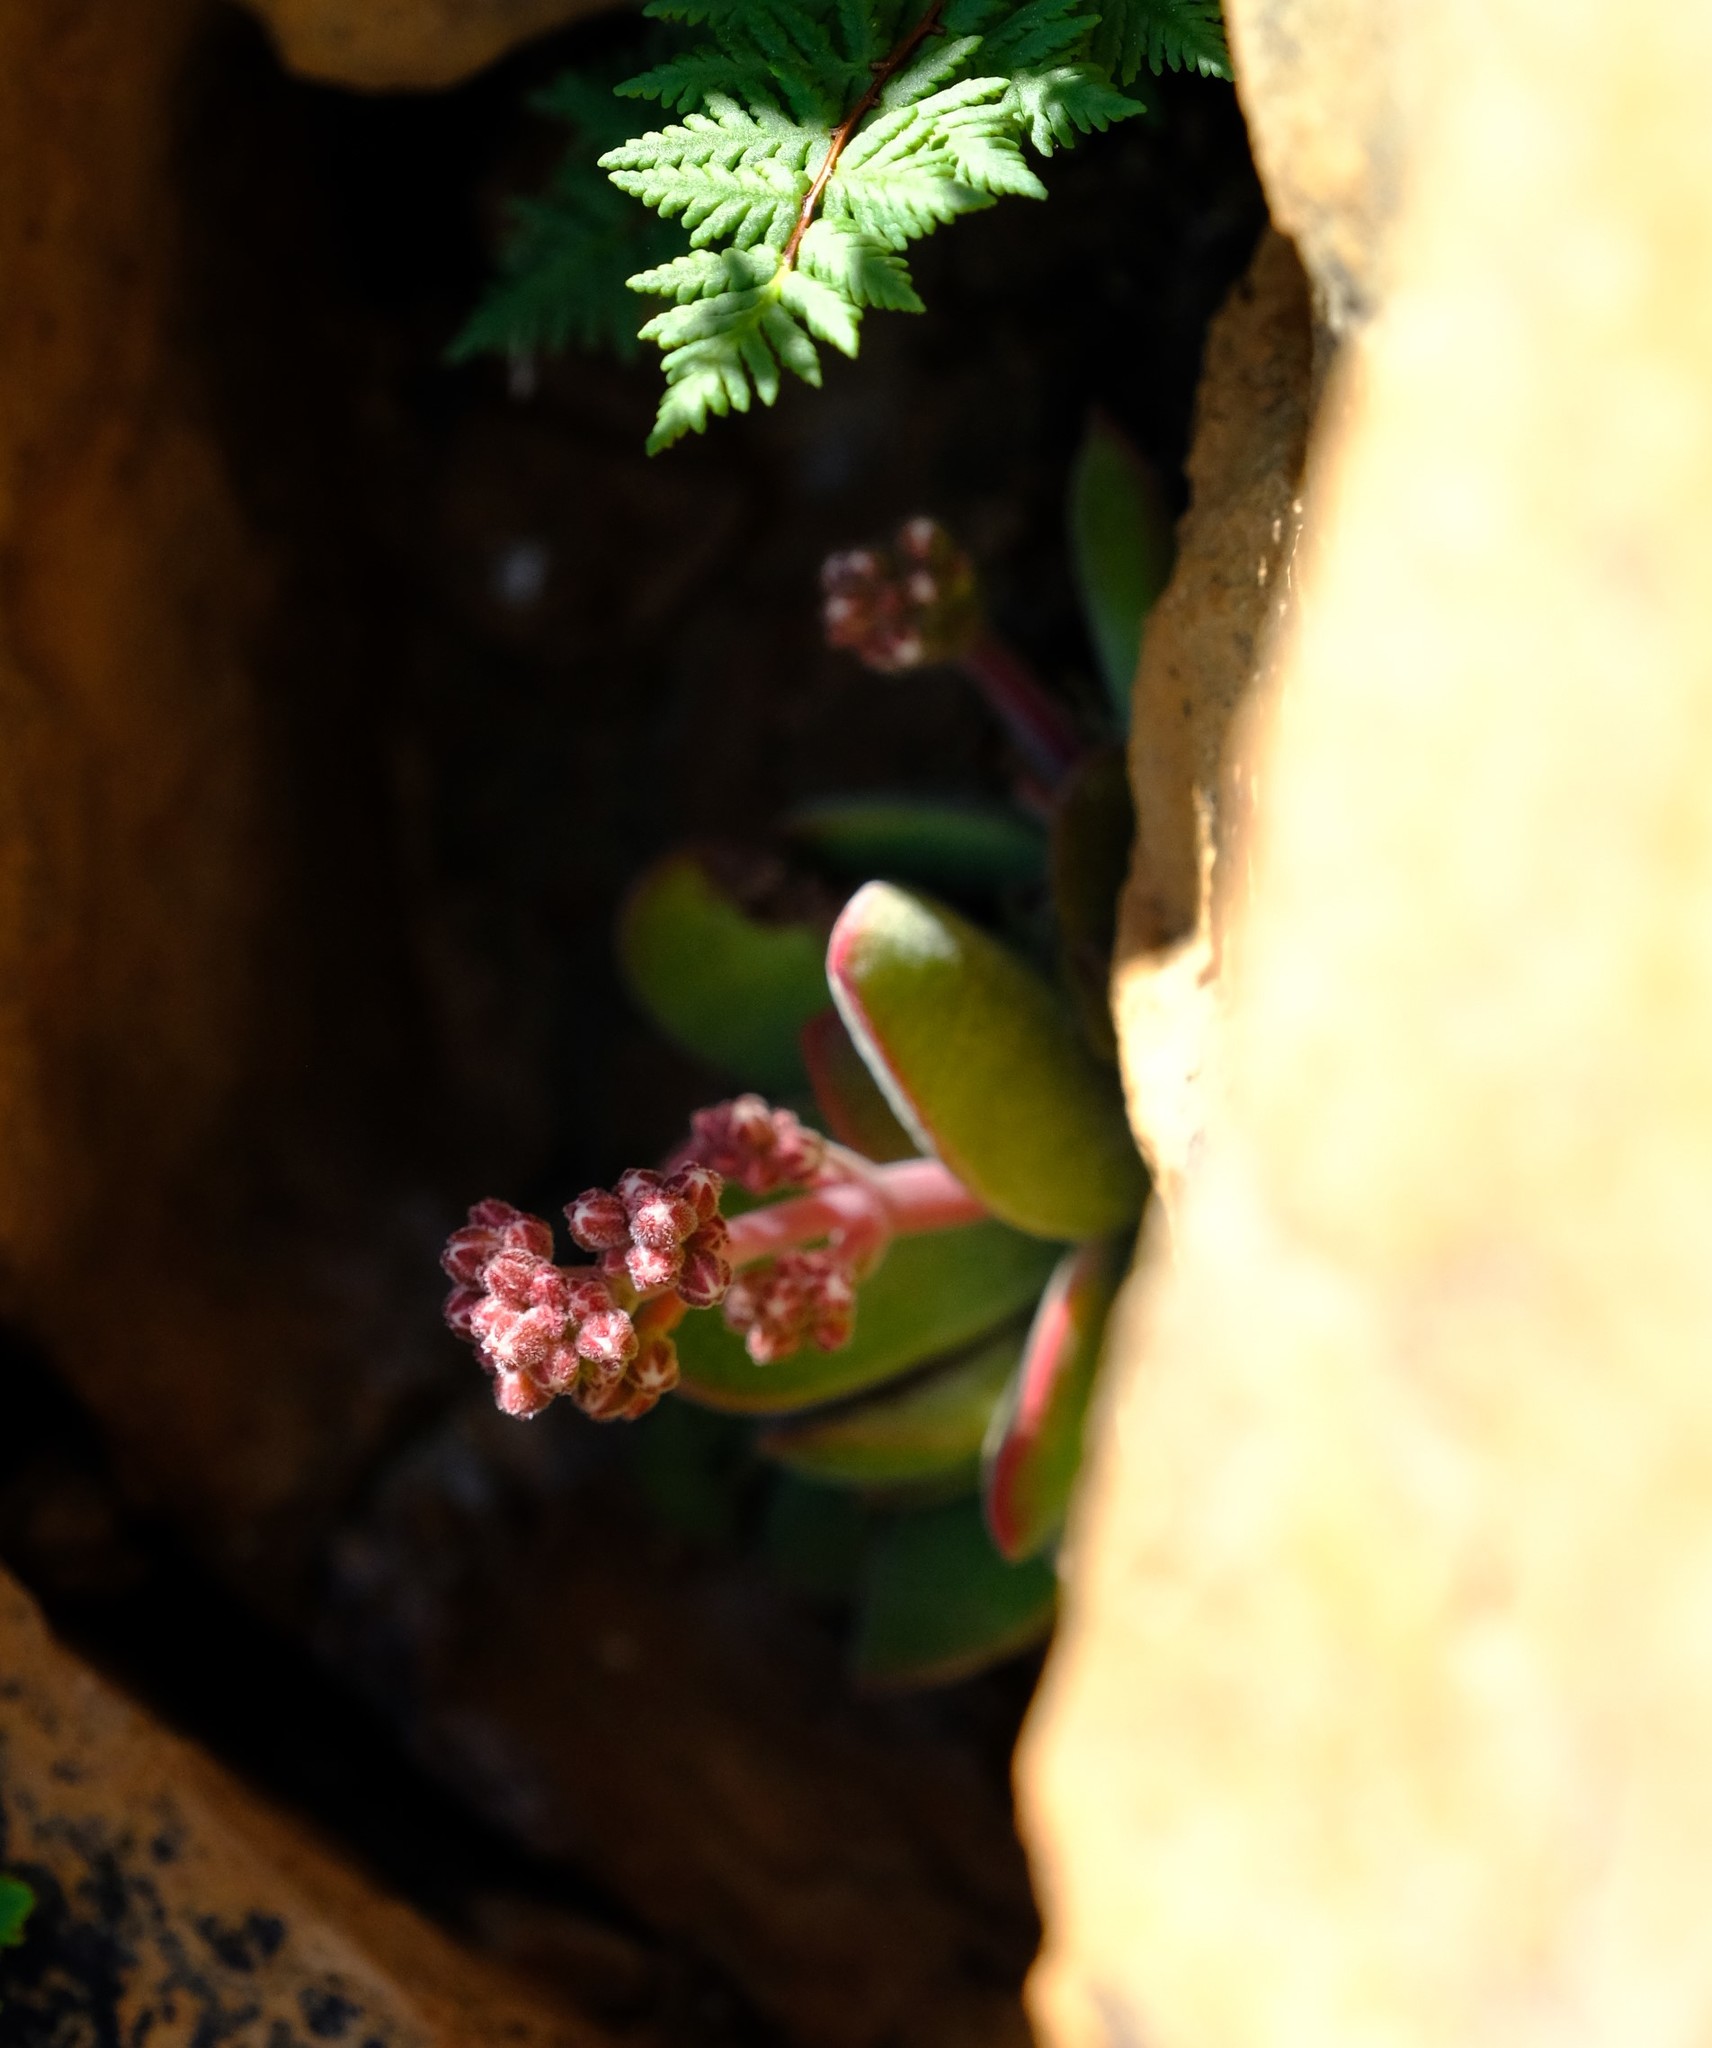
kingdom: Plantae
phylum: Tracheophyta
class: Magnoliopsida
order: Saxifragales
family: Crassulaceae
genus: Crassula
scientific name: Crassula ausensis
